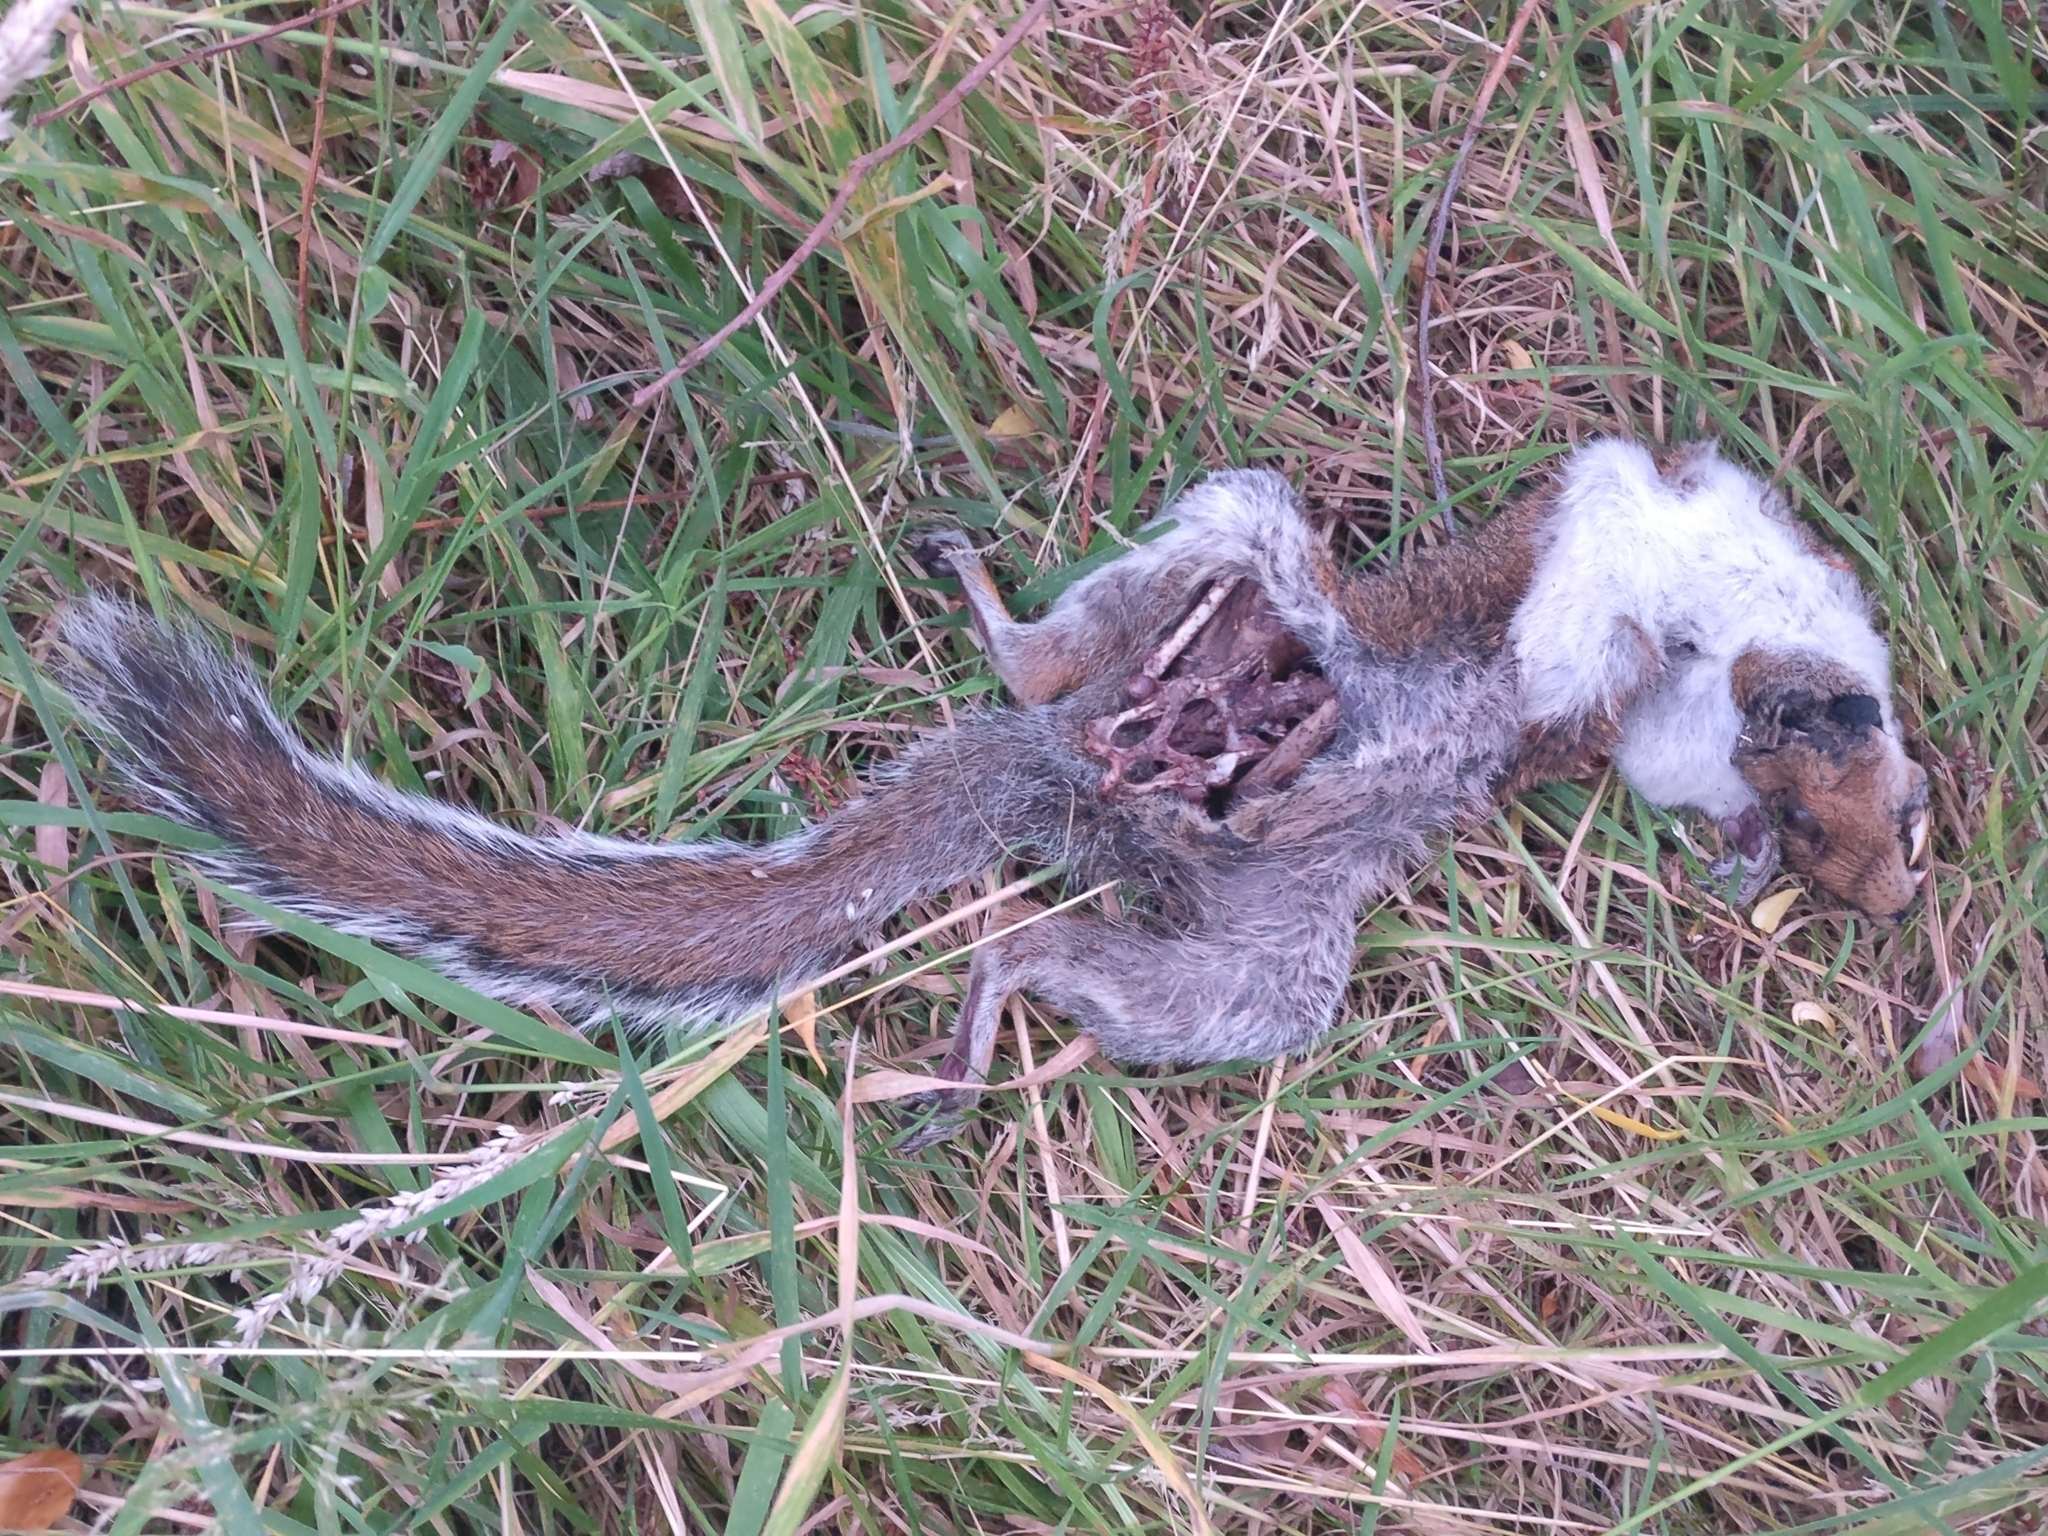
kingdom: Animalia
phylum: Chordata
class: Mammalia
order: Rodentia
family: Sciuridae
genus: Sciurus
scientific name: Sciurus carolinensis
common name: Eastern gray squirrel
